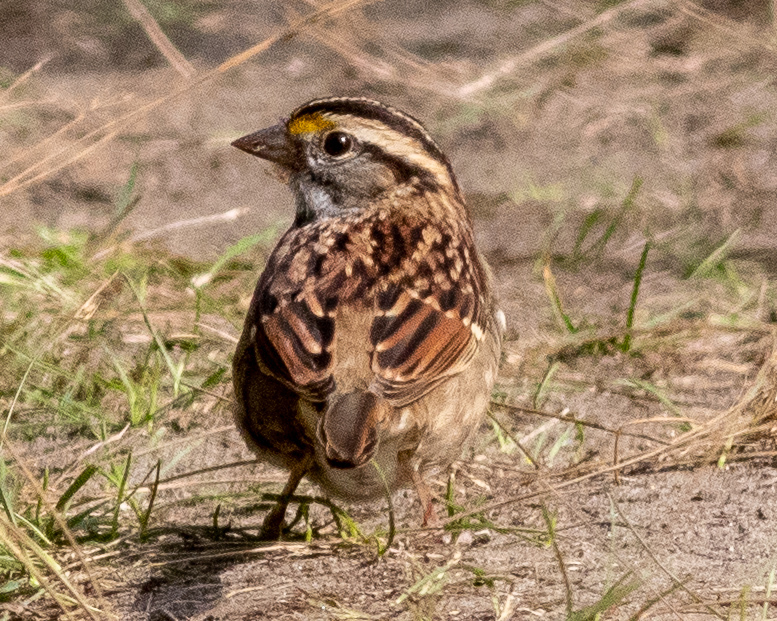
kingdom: Animalia
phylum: Chordata
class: Aves
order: Passeriformes
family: Passerellidae
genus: Zonotrichia
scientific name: Zonotrichia albicollis
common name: White-throated sparrow
